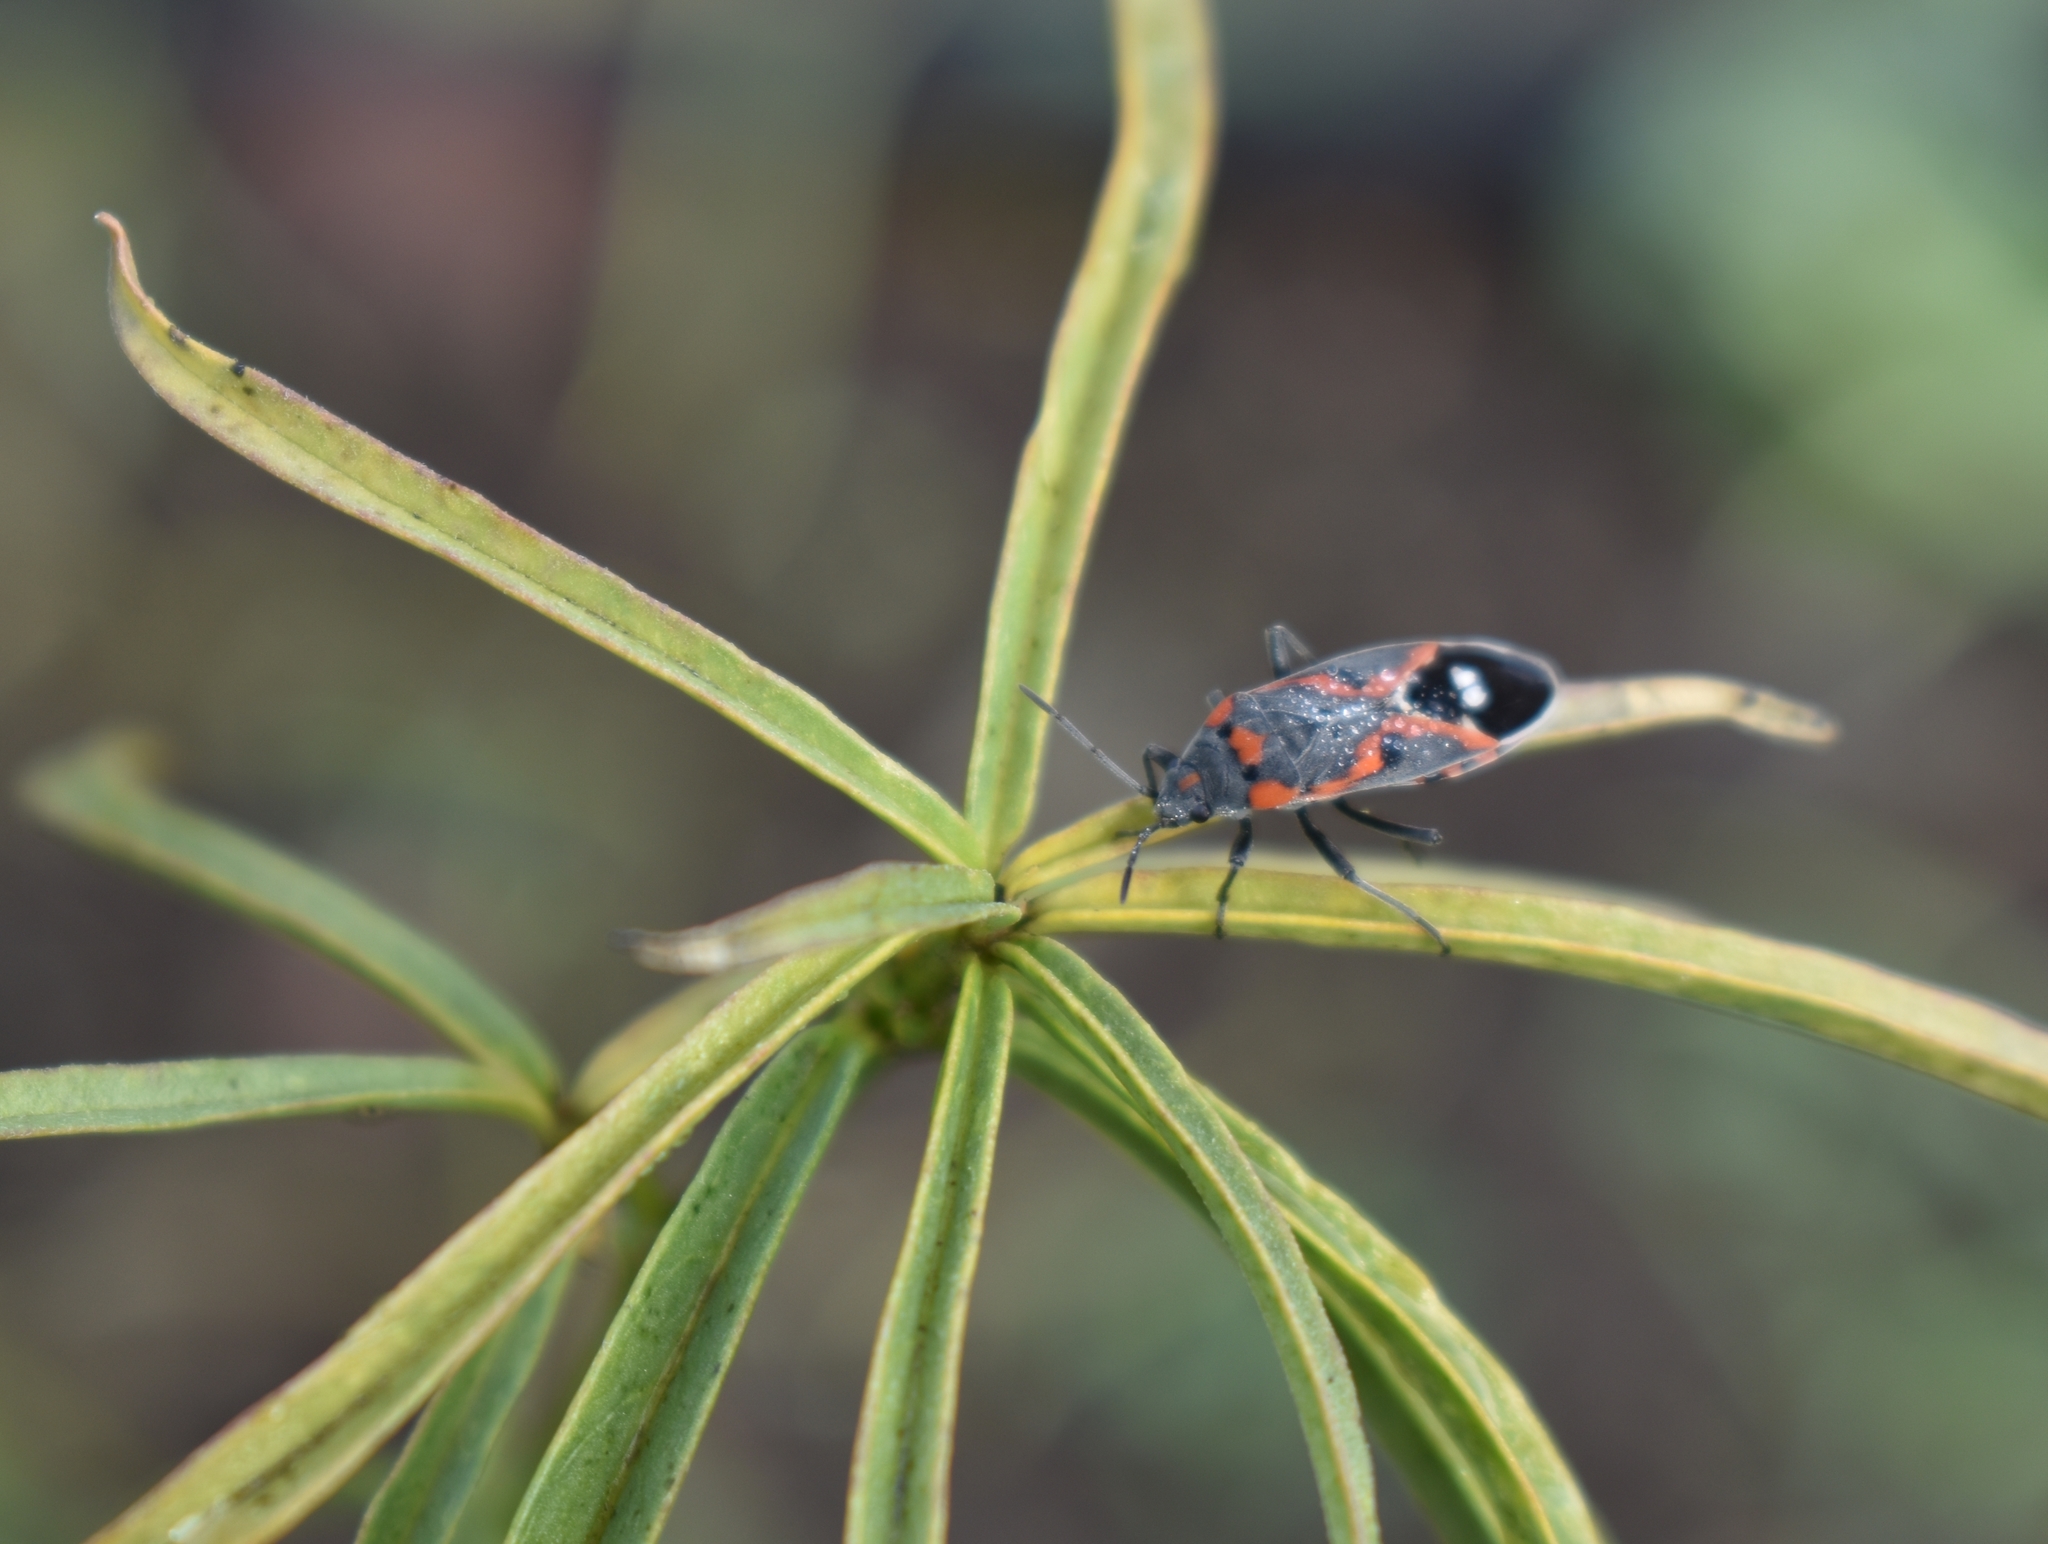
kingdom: Animalia
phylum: Arthropoda
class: Insecta
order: Hemiptera
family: Lygaeidae
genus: Lygaeus
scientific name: Lygaeus kalmii
